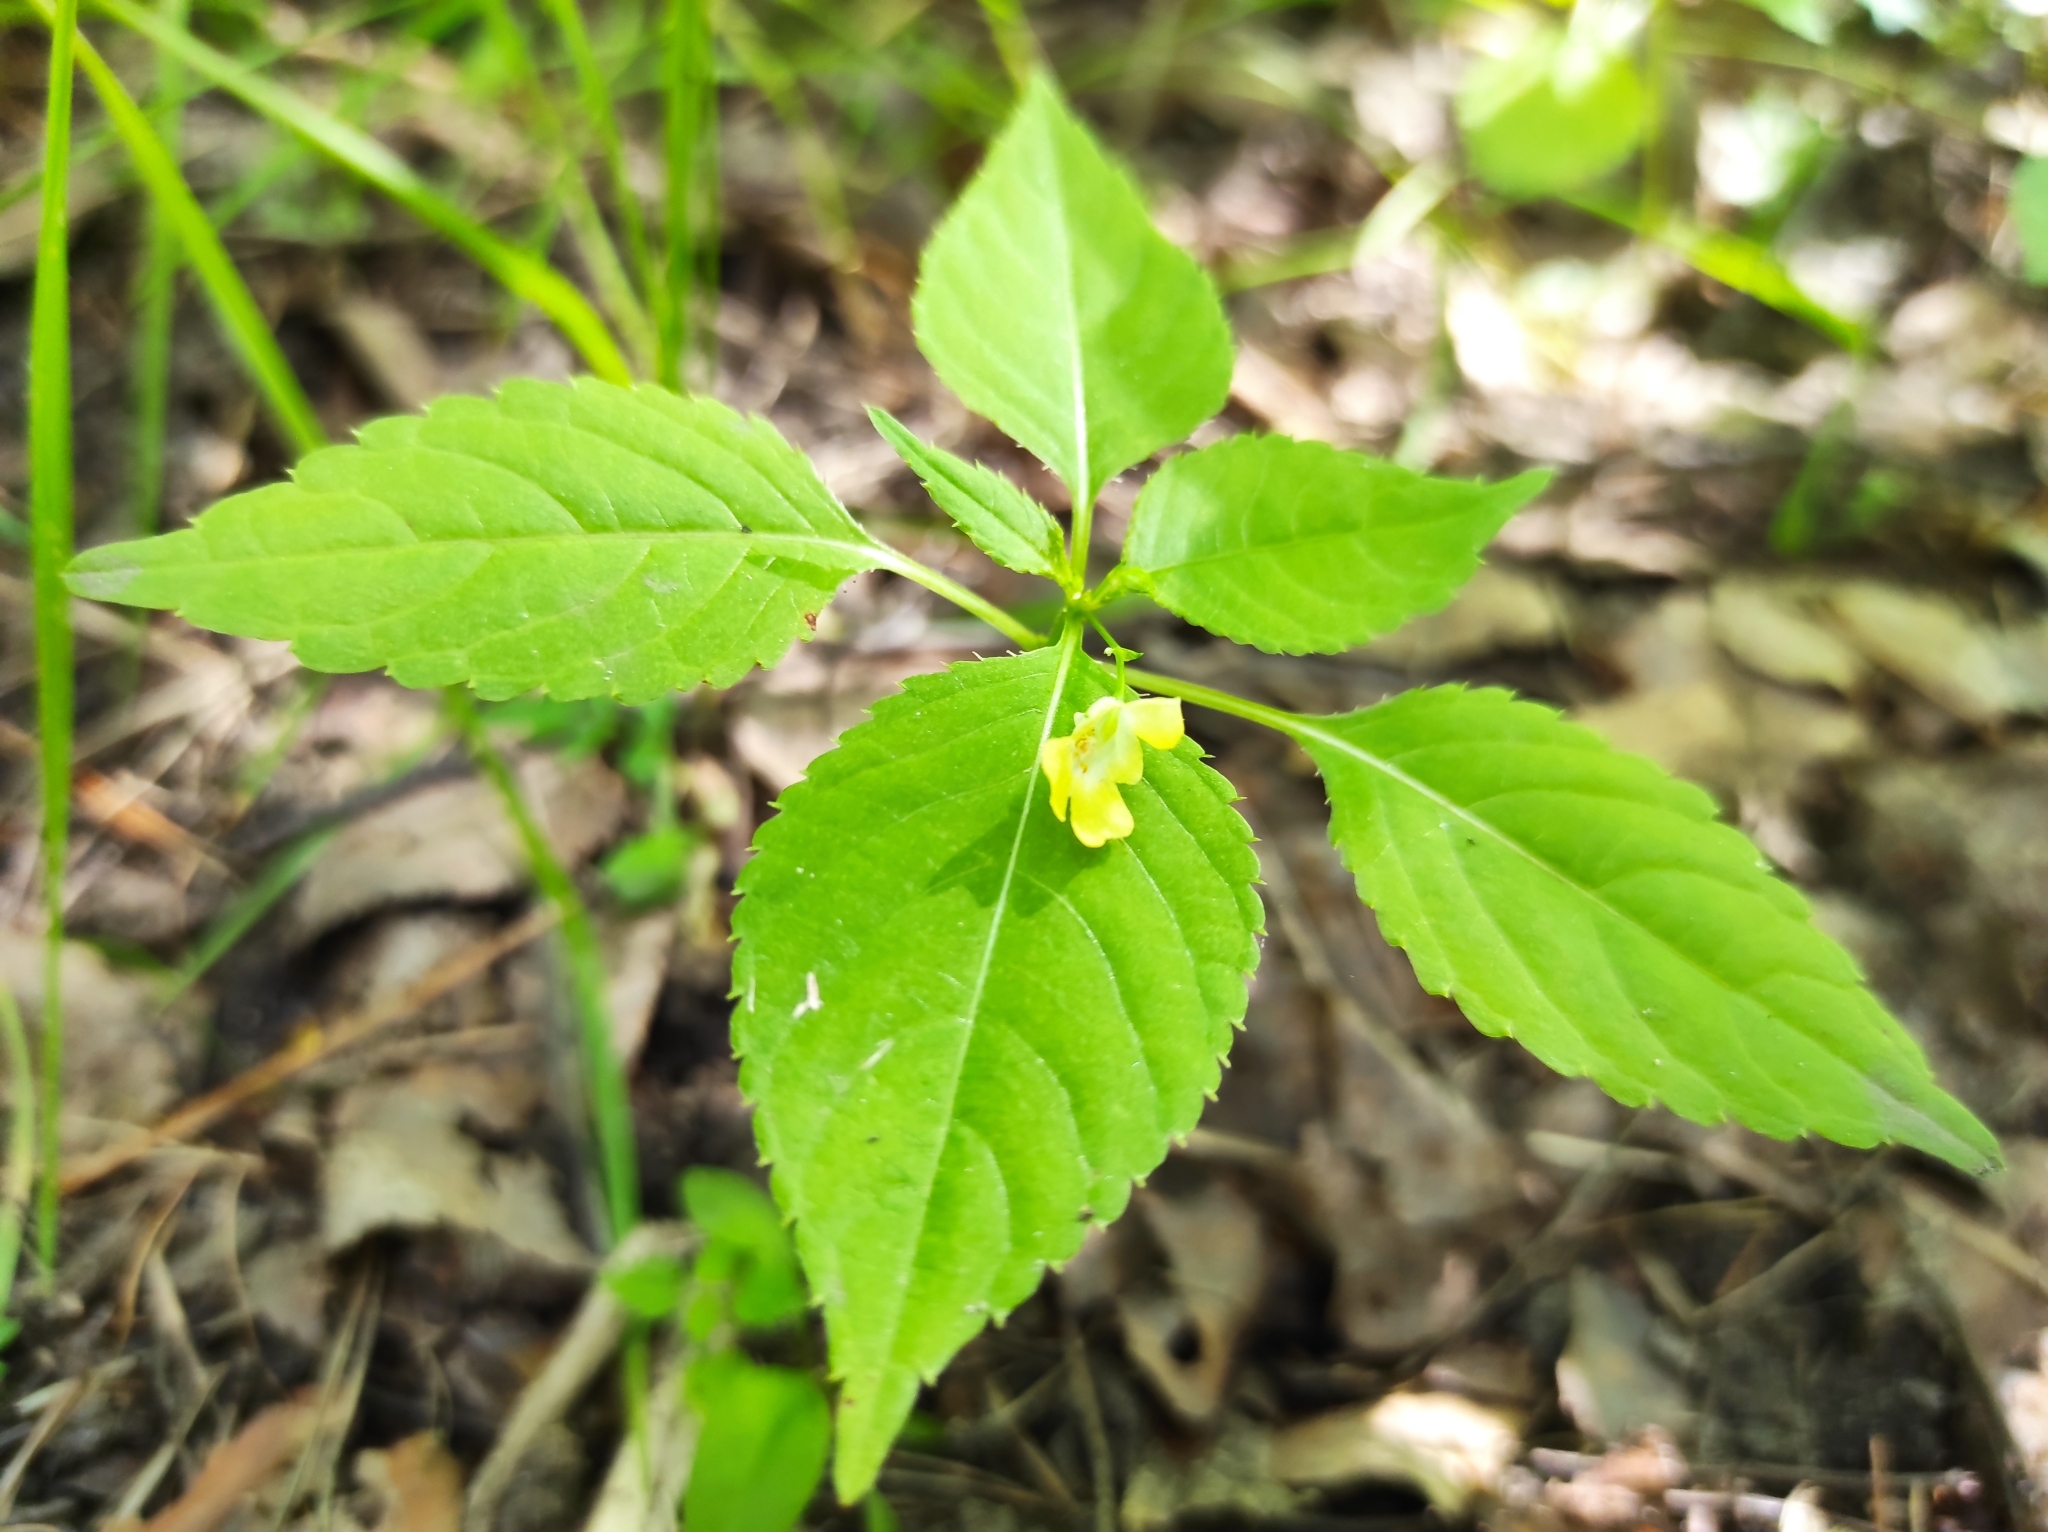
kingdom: Plantae
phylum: Tracheophyta
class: Magnoliopsida
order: Ericales
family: Balsaminaceae
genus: Impatiens
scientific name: Impatiens parviflora
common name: Small balsam
